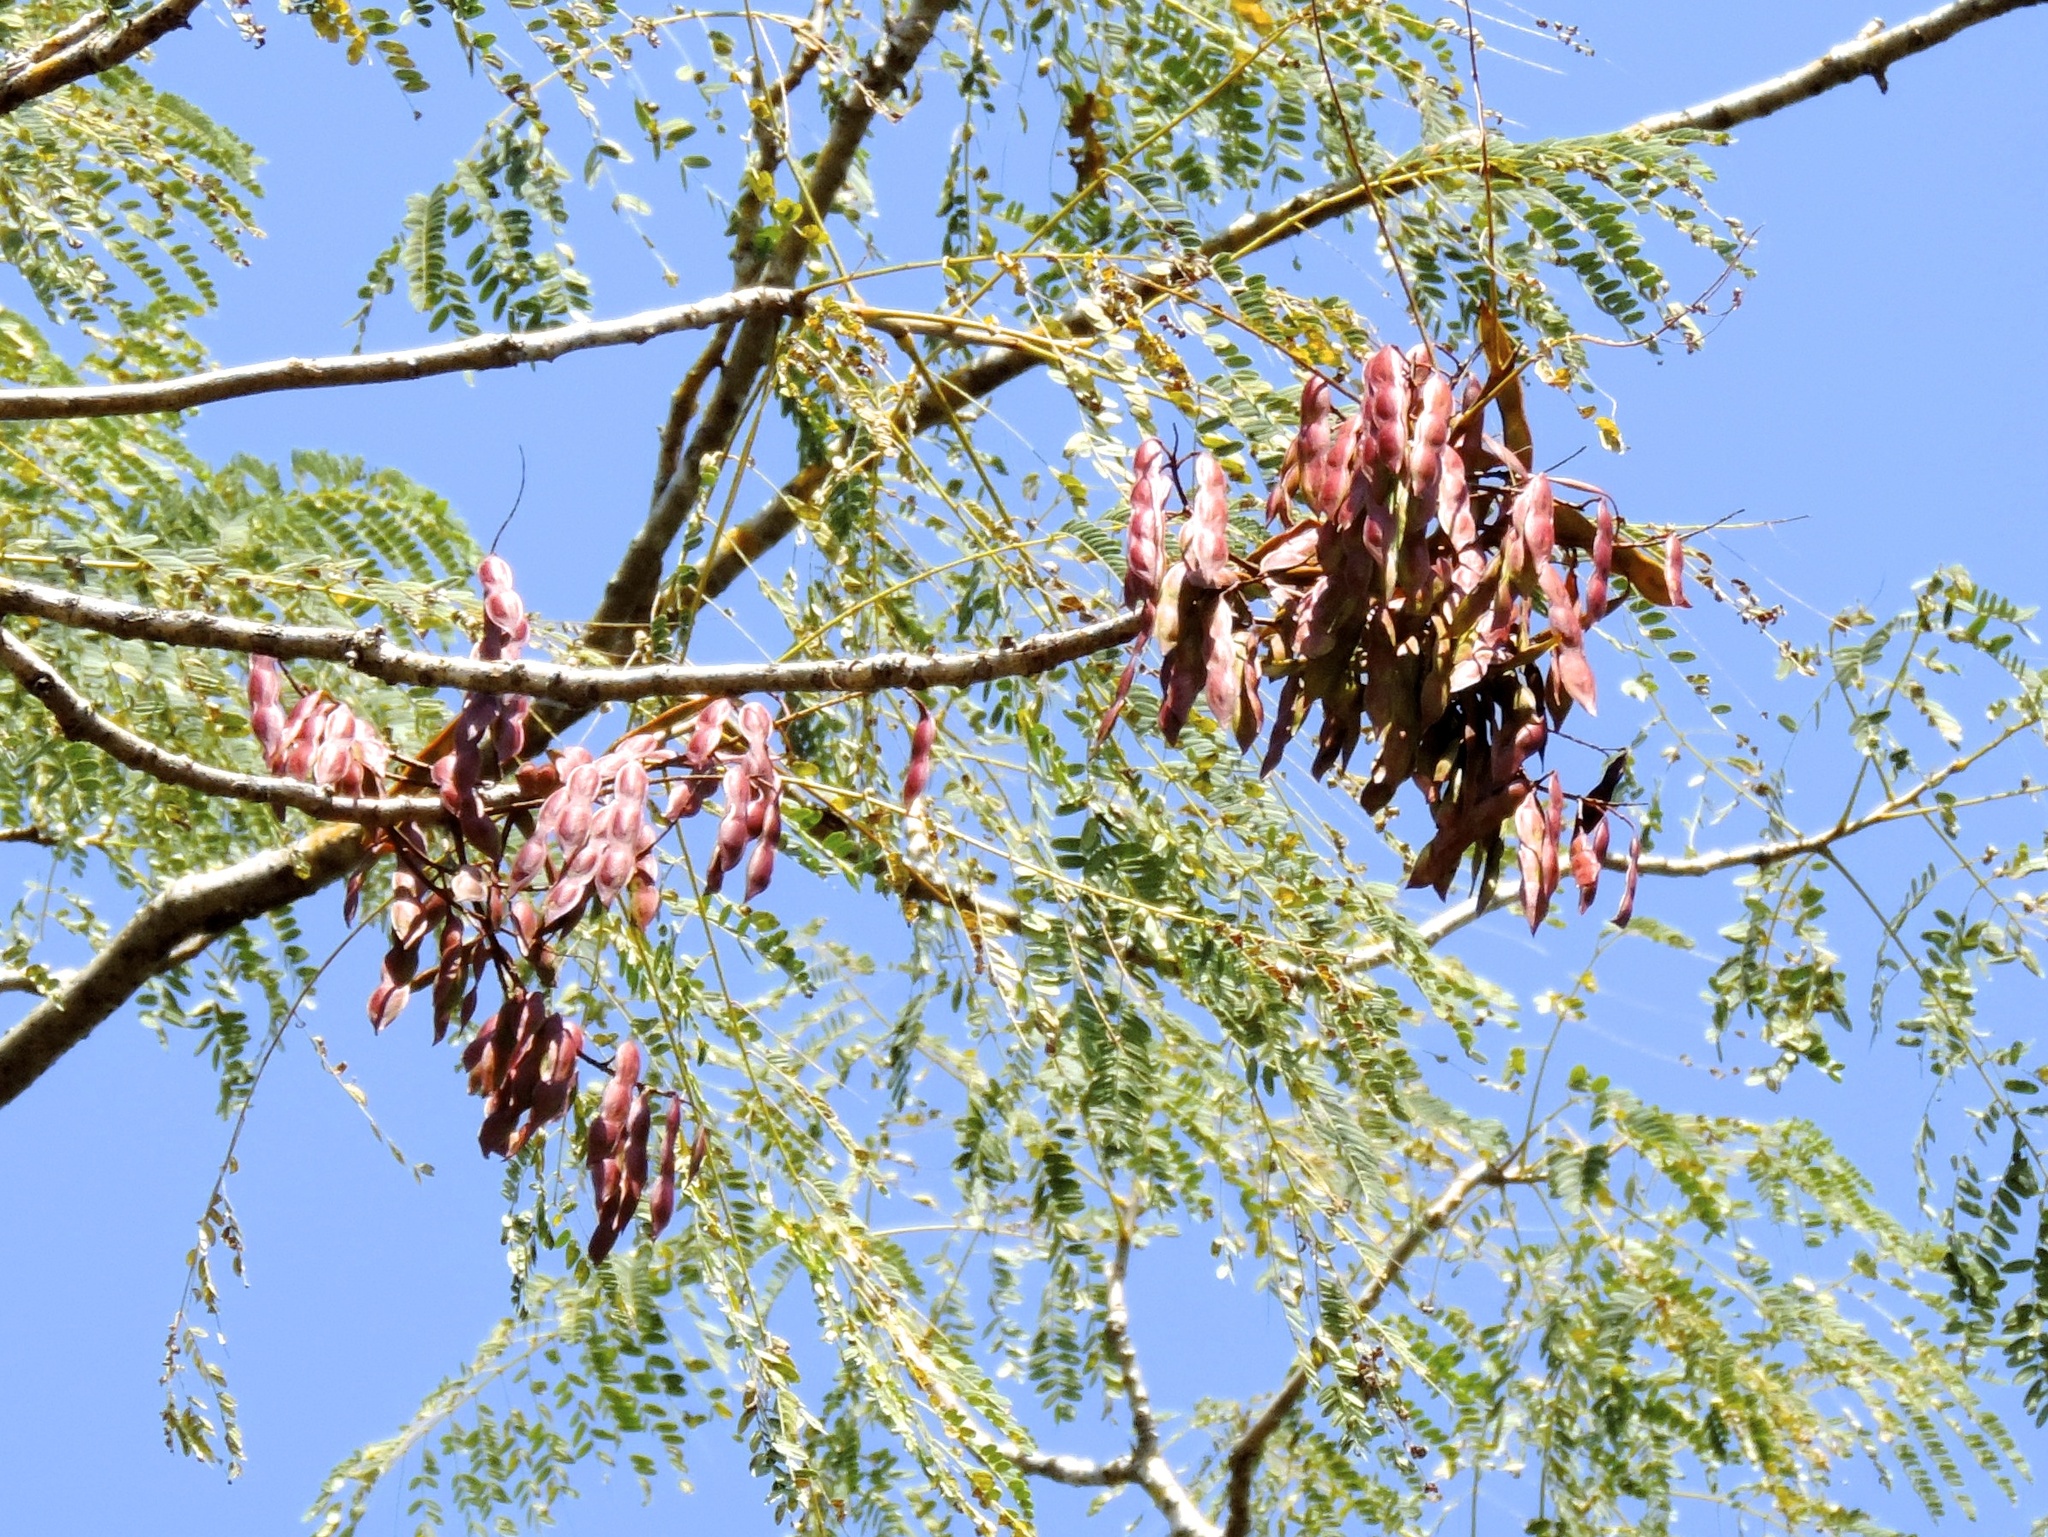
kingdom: Plantae
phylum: Tracheophyta
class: Magnoliopsida
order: Fabales
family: Fabaceae
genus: Conzattia
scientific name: Conzattia sericea
